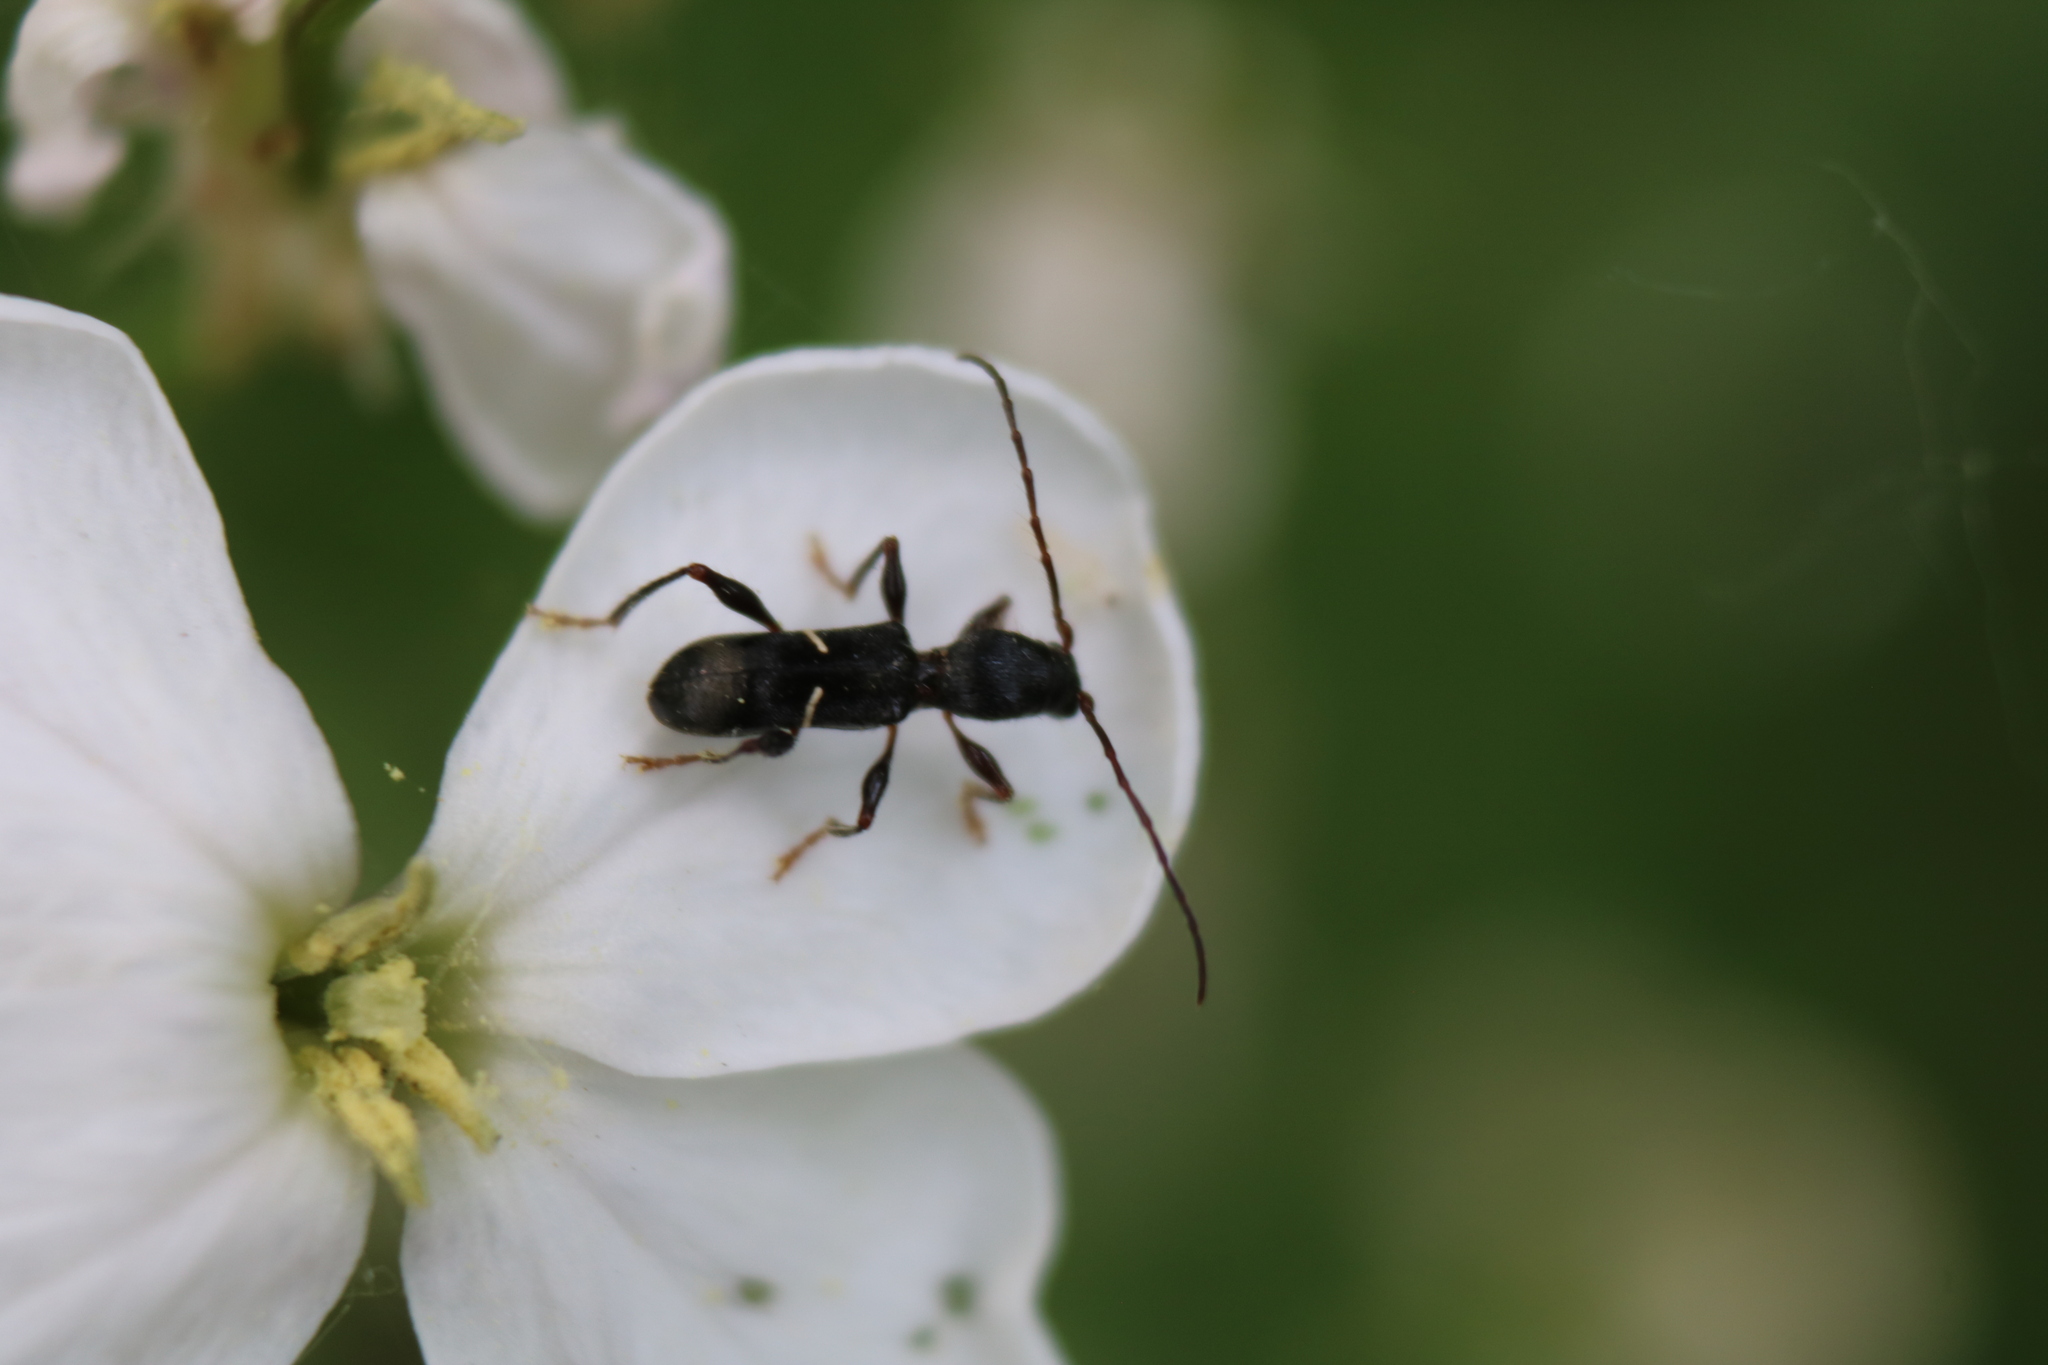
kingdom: Animalia
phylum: Arthropoda
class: Insecta
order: Coleoptera
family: Cerambycidae
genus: Euderces
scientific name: Euderces picipes
